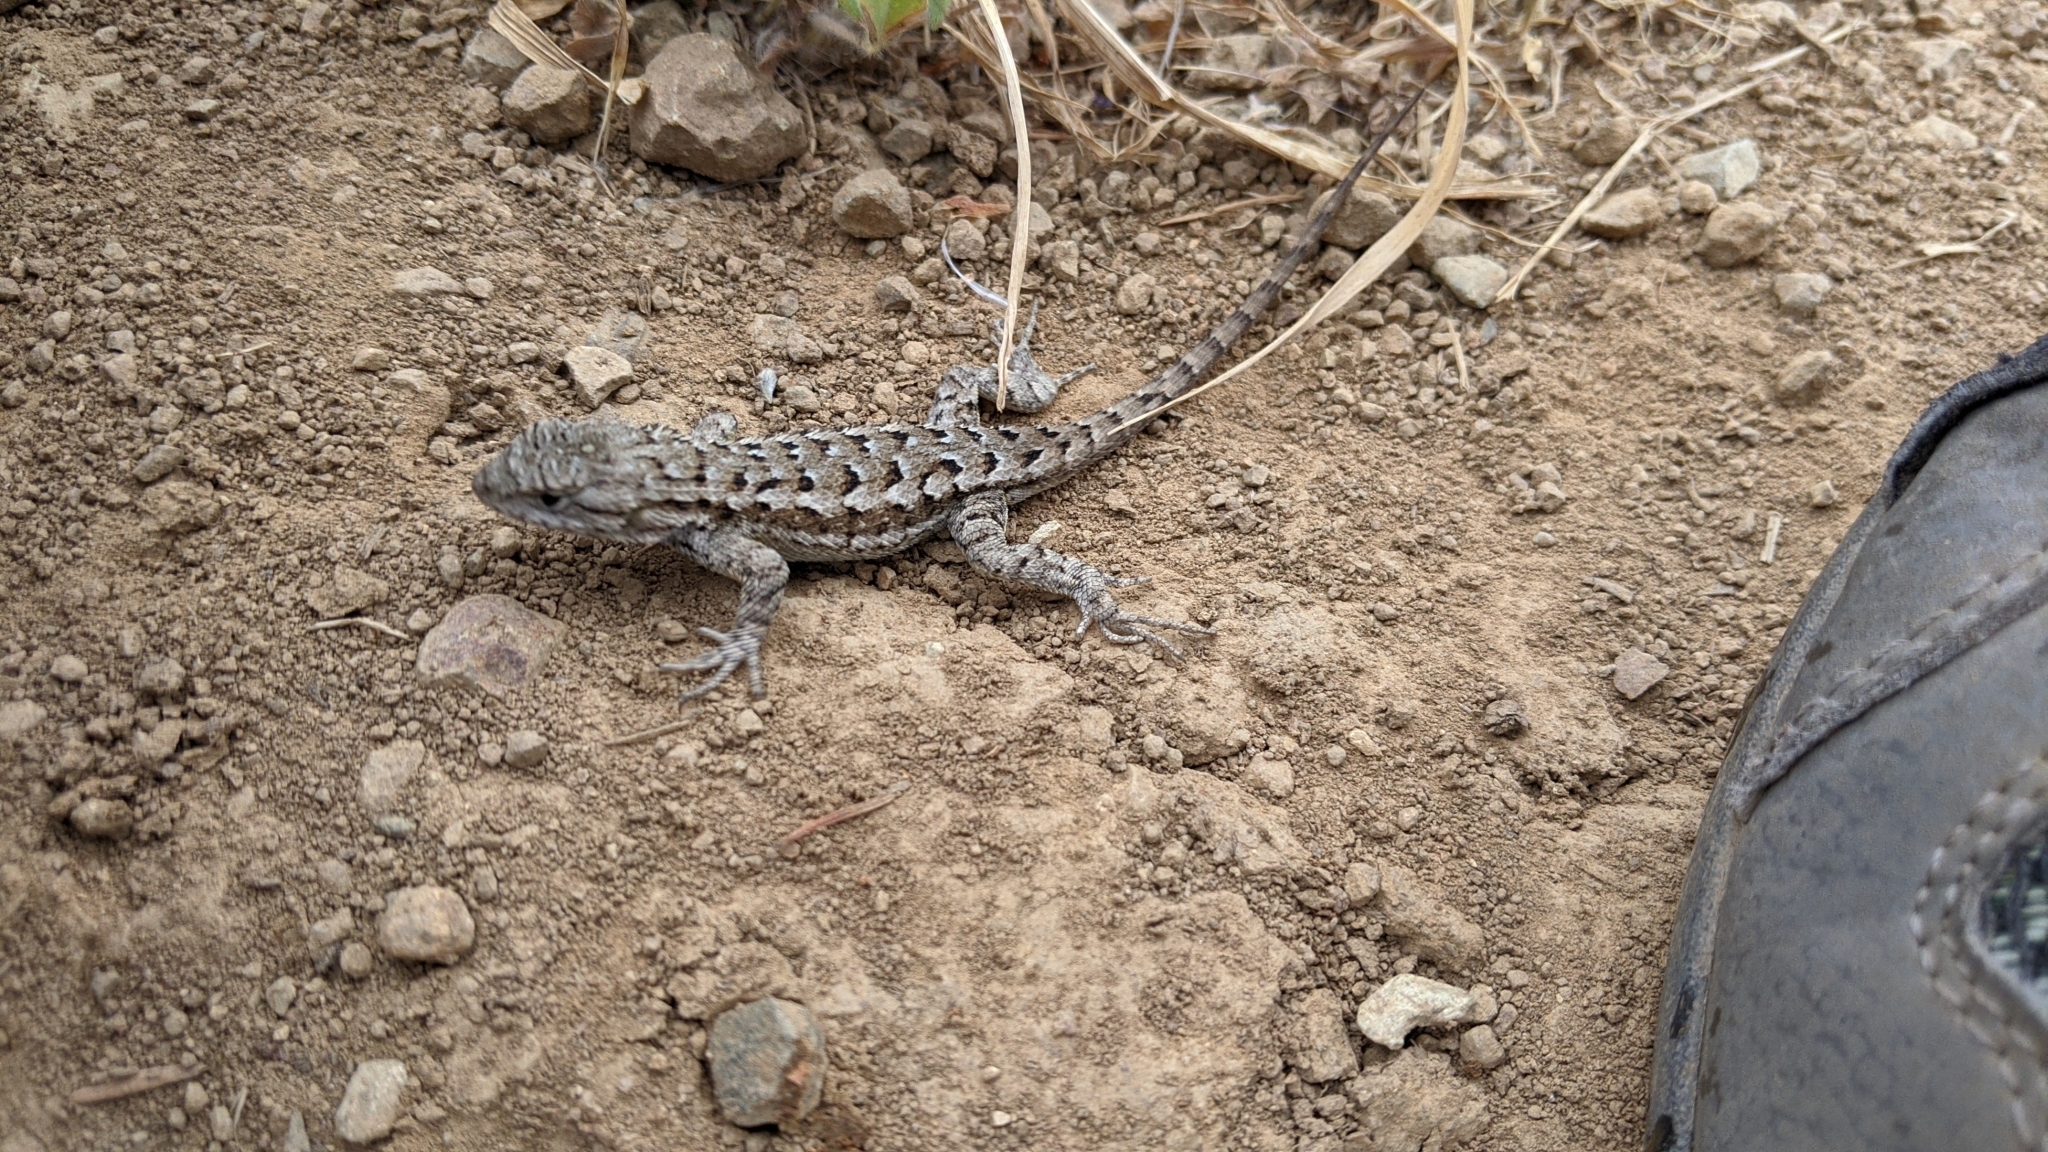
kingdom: Animalia
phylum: Chordata
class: Squamata
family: Phrynosomatidae
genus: Sceloporus
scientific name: Sceloporus occidentalis
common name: Western fence lizard
